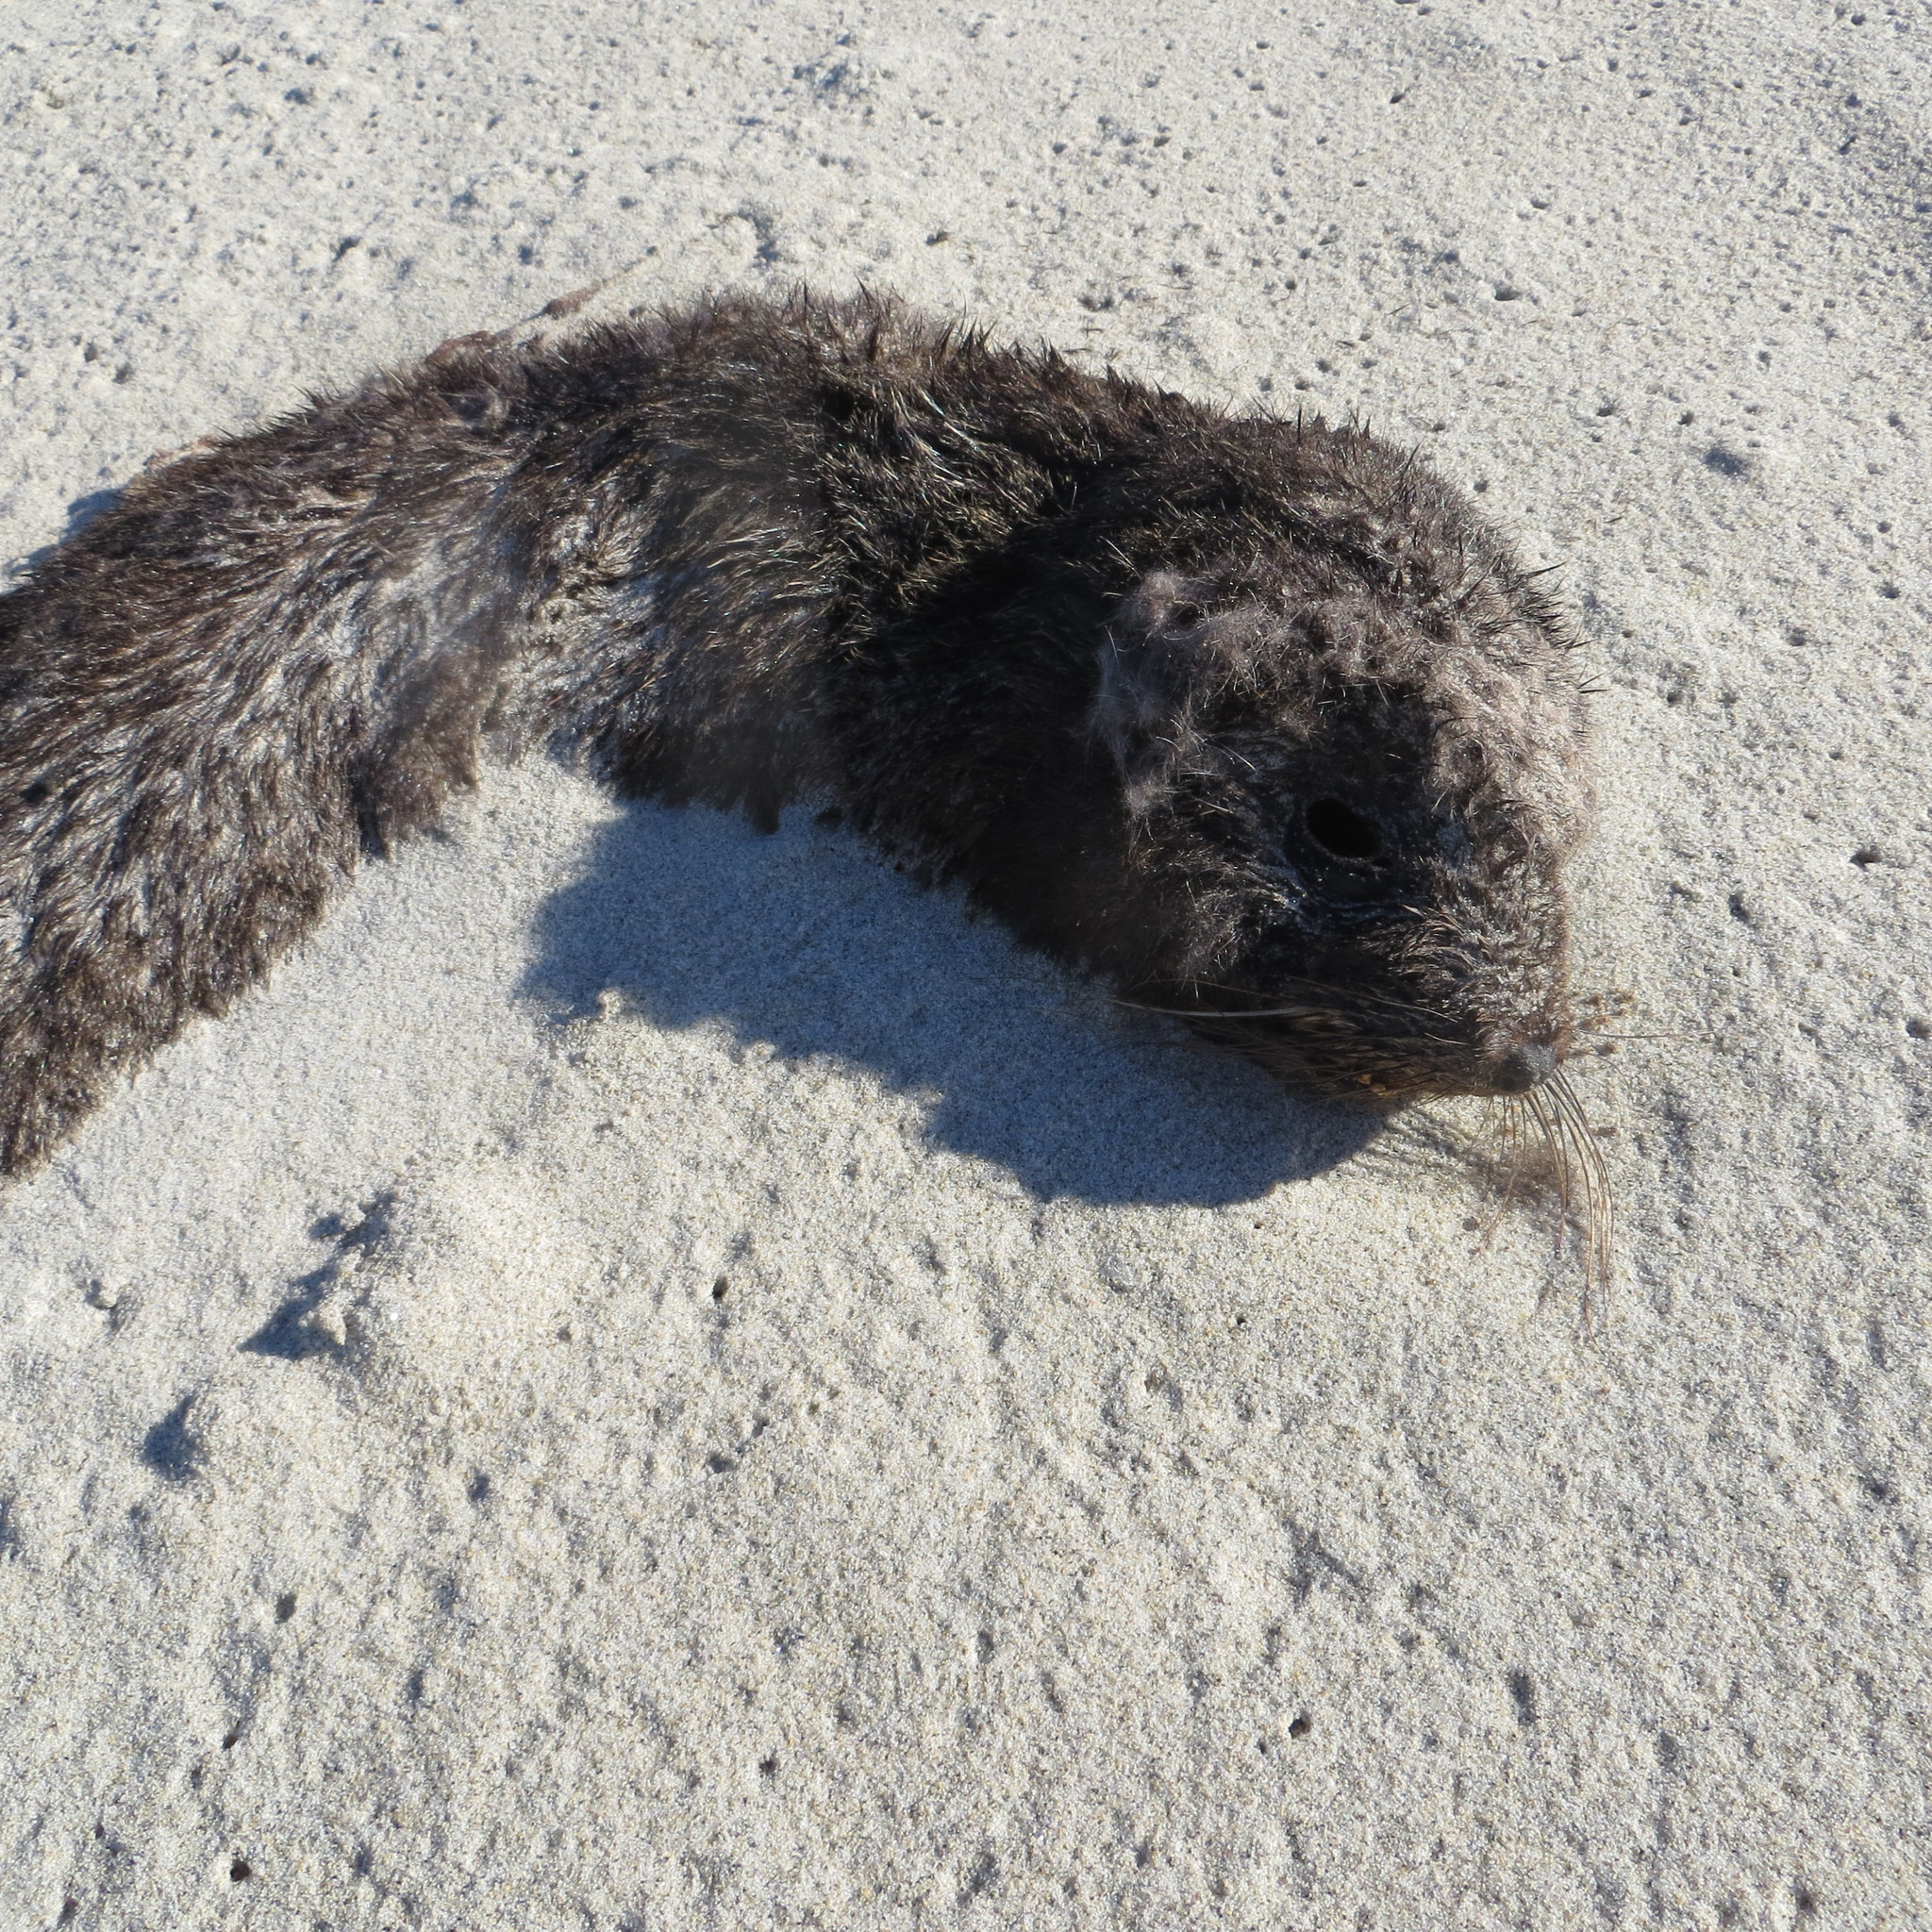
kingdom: Animalia
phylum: Chordata
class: Mammalia
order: Carnivora
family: Otariidae
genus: Arctocephalus
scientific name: Arctocephalus forsteri
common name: New zealand fur seal
